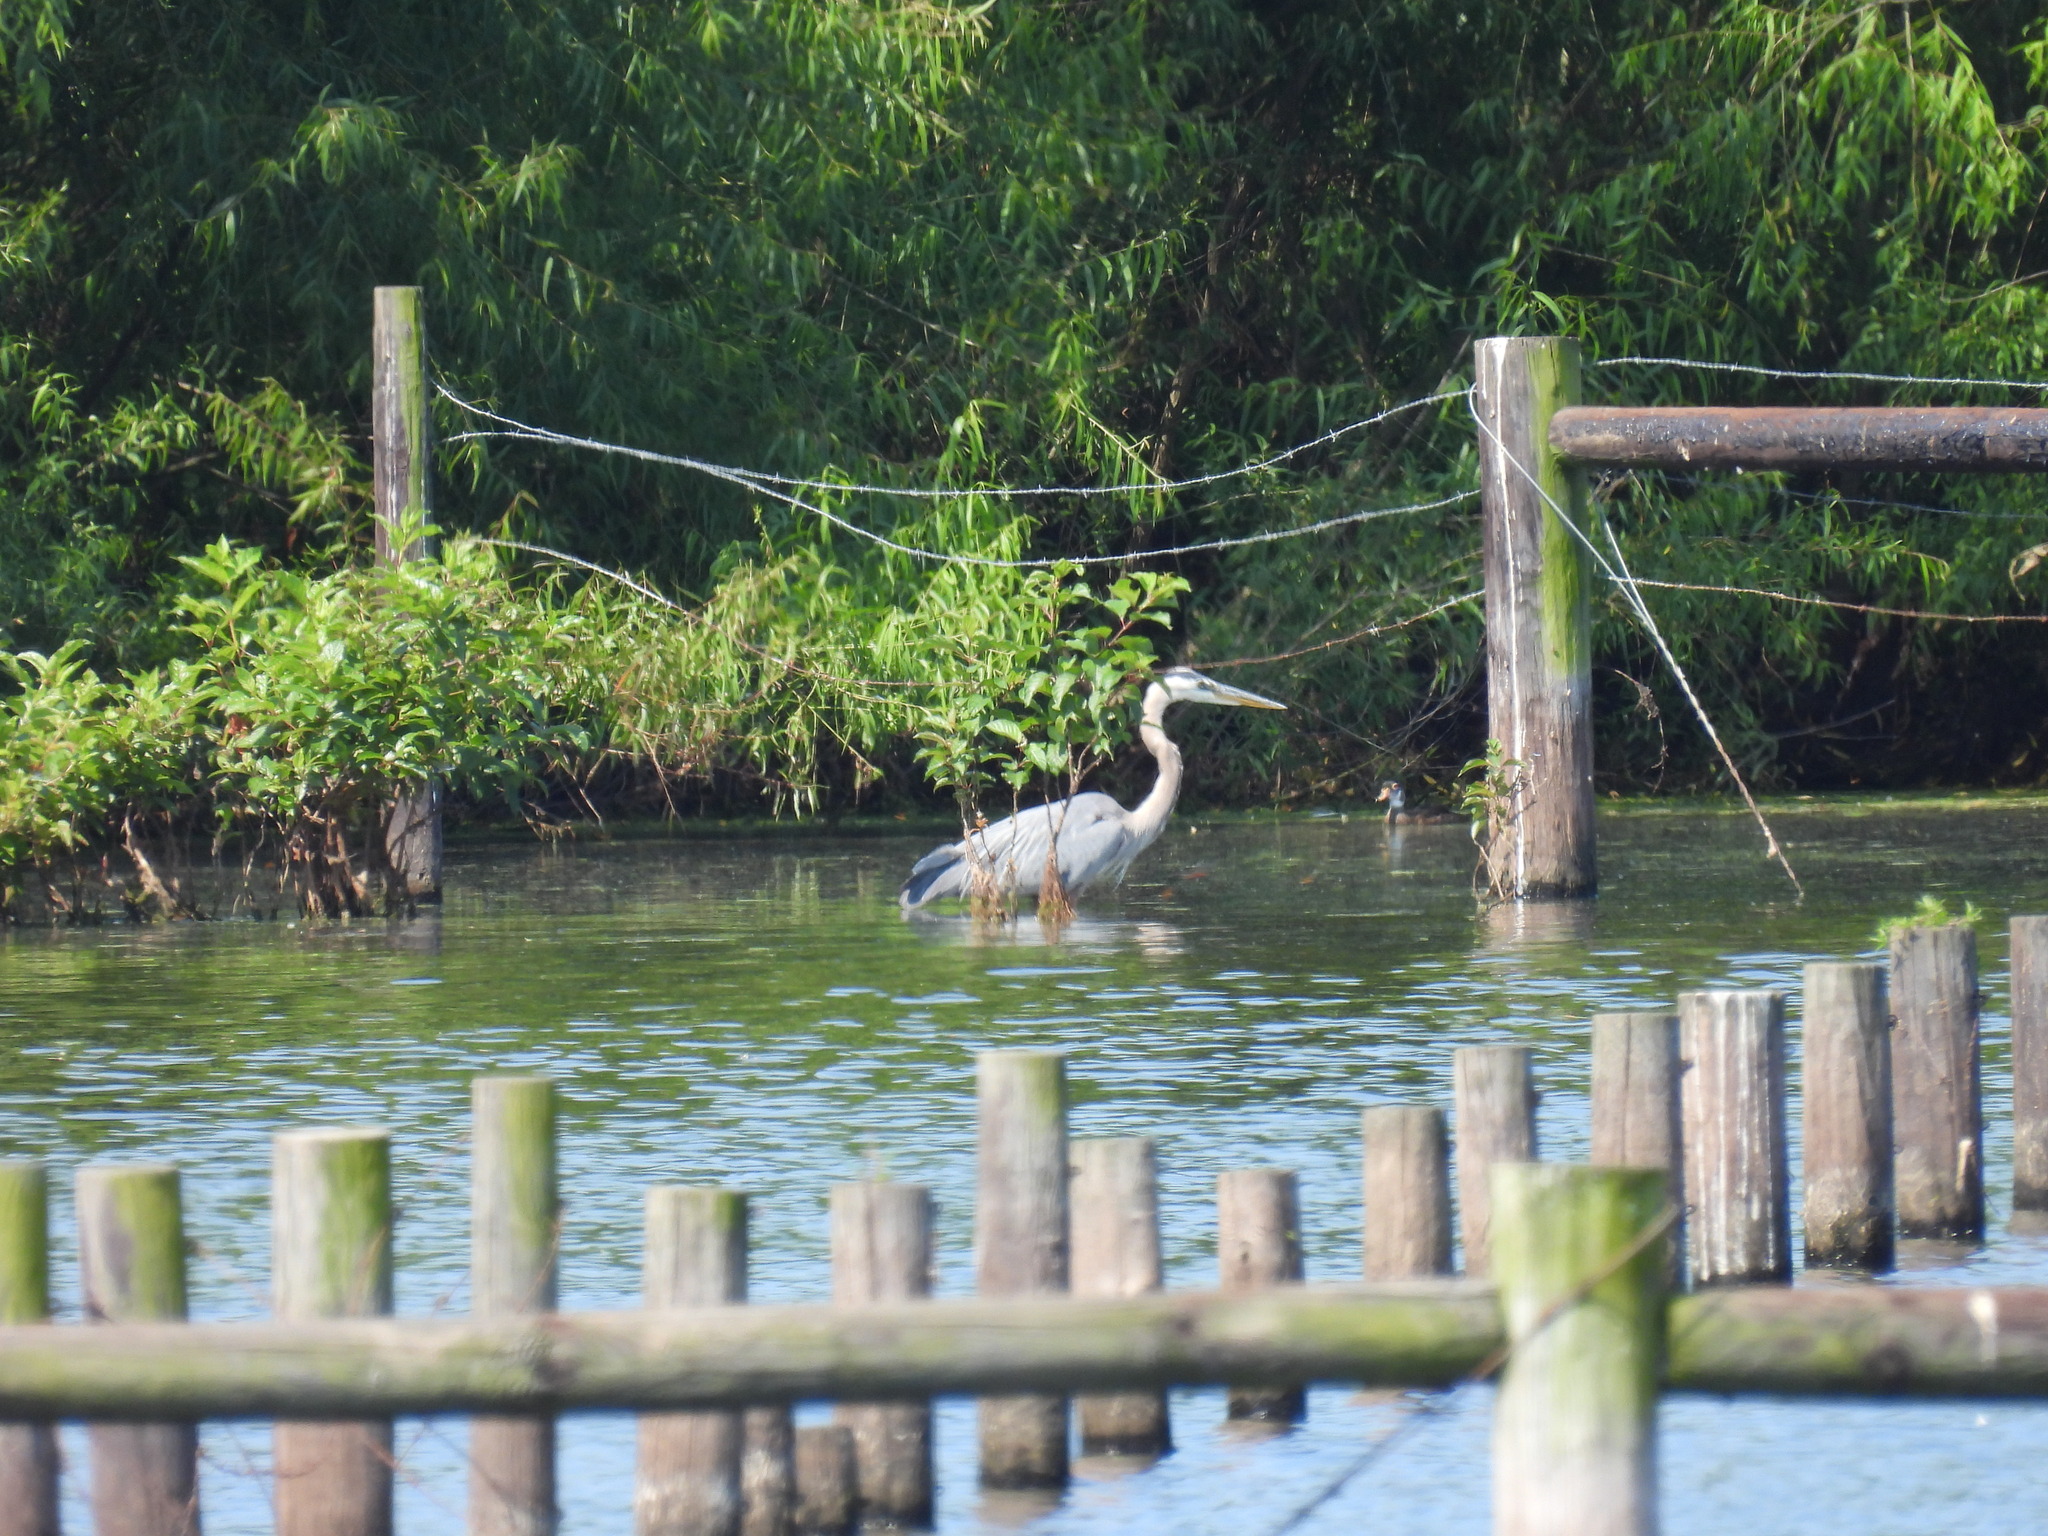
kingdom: Animalia
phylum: Chordata
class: Aves
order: Pelecaniformes
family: Ardeidae
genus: Ardea
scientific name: Ardea herodias
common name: Great blue heron
